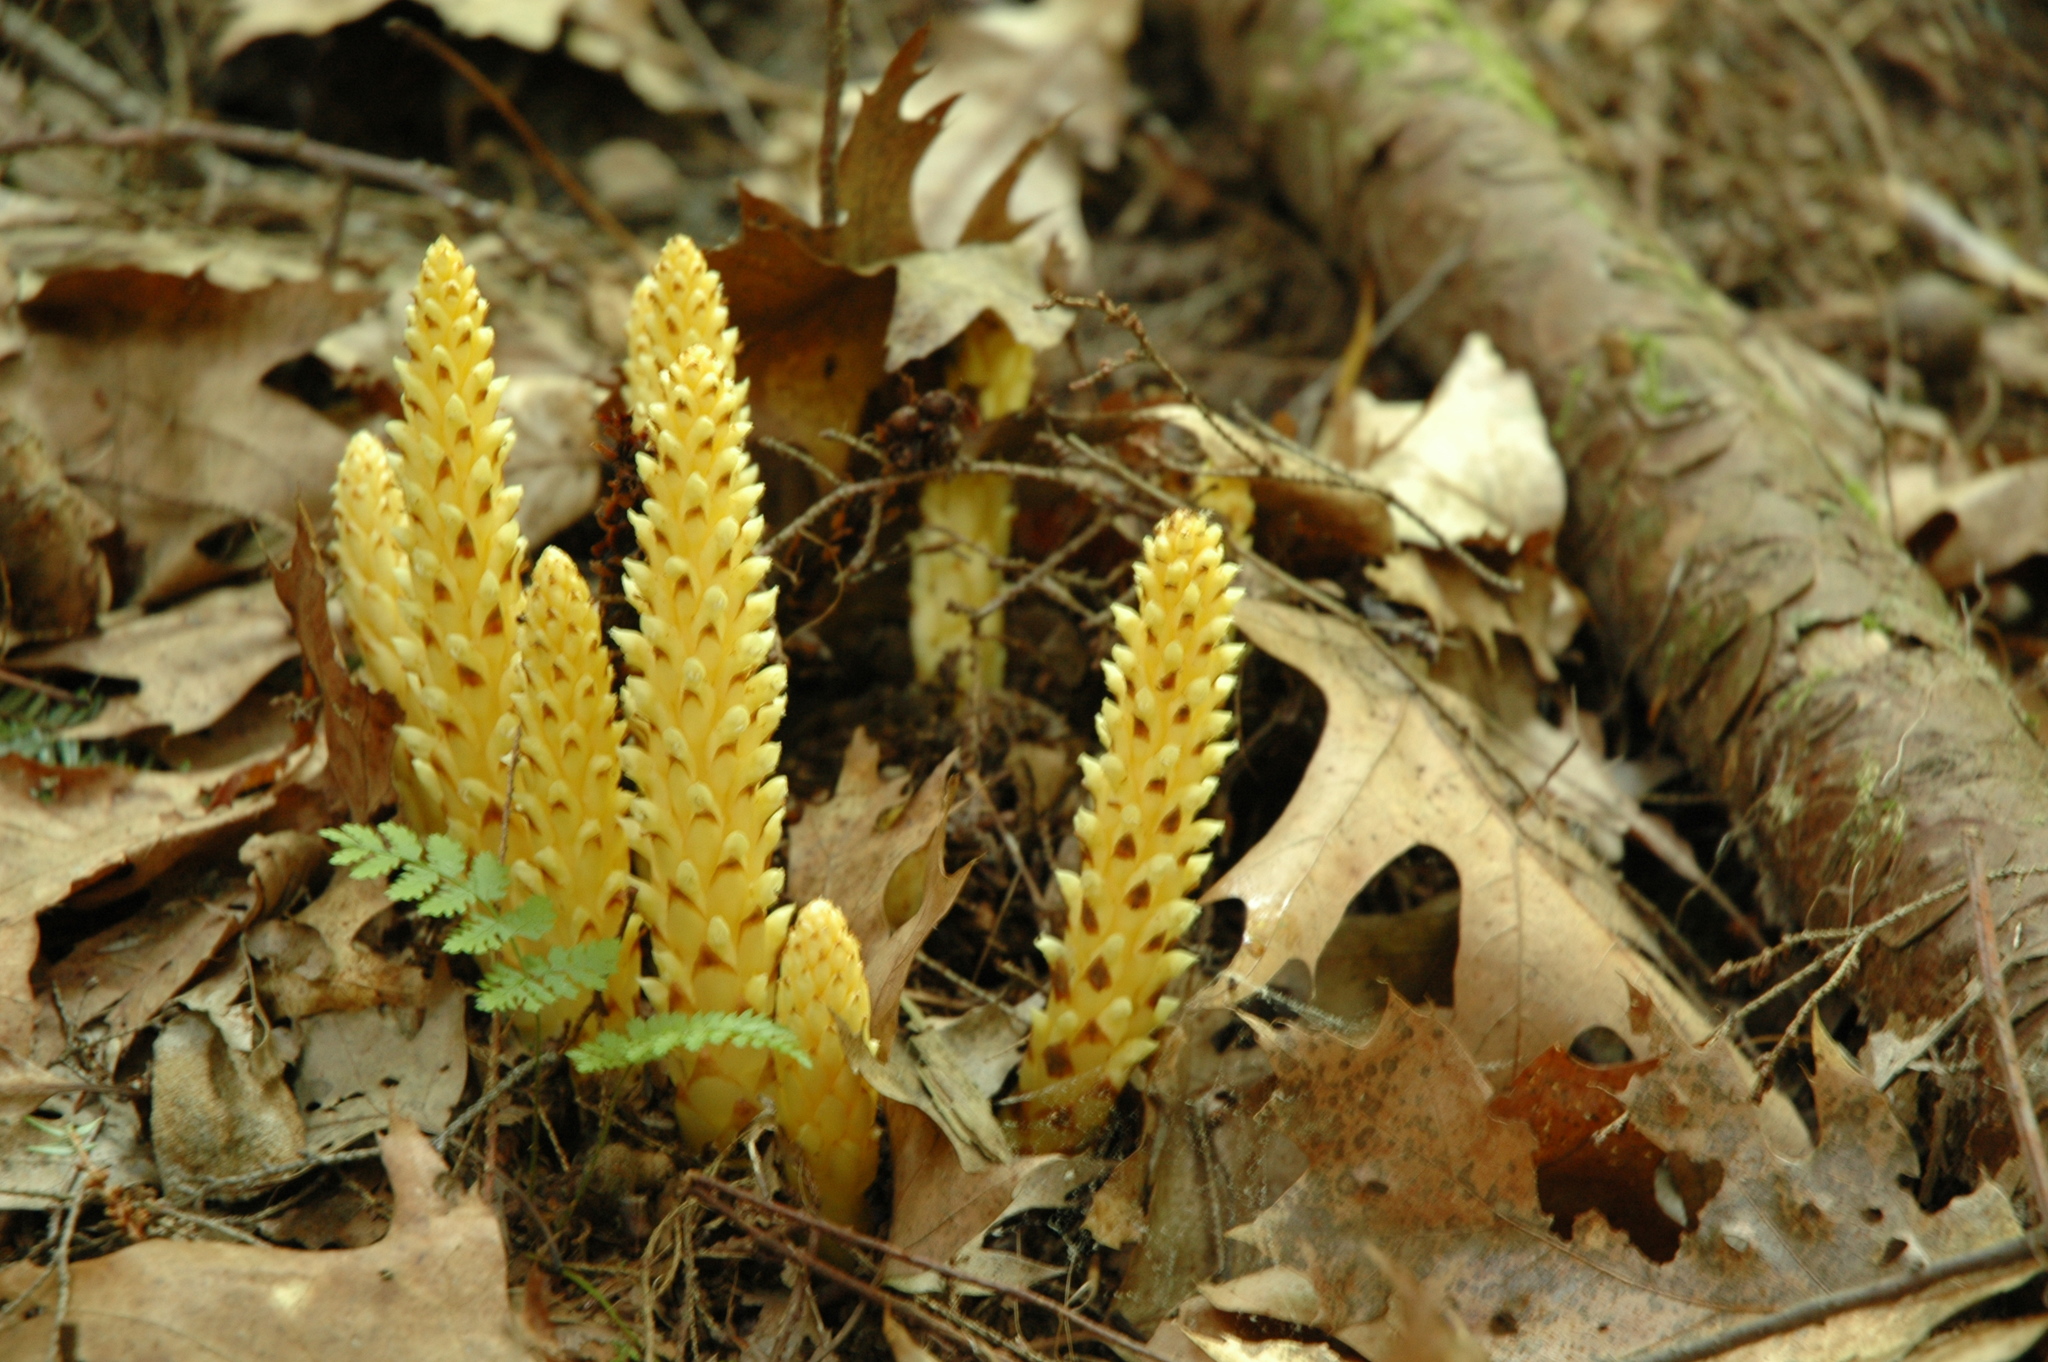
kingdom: Plantae
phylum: Tracheophyta
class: Magnoliopsida
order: Lamiales
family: Orobanchaceae
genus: Conopholis
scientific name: Conopholis americana
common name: American cancer-root
